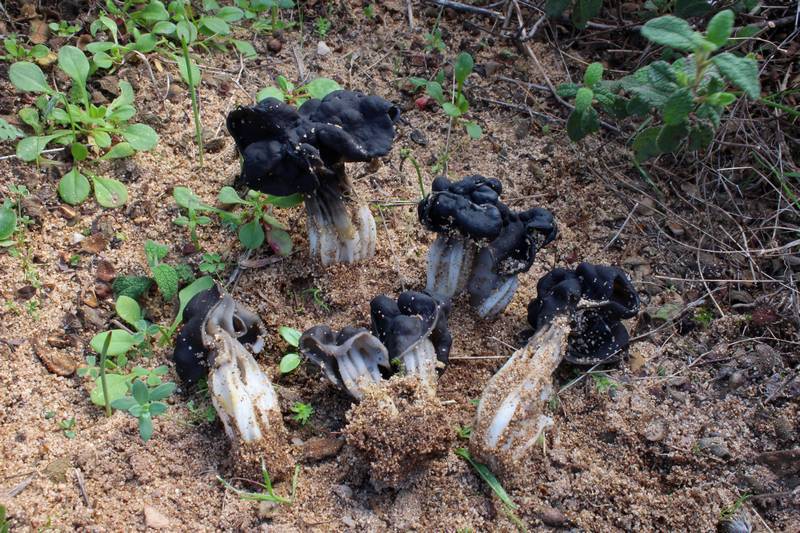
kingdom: Fungi
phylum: Ascomycota
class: Pezizomycetes
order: Pezizales
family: Helvellaceae
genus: Helvella
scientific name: Helvella juniperi
